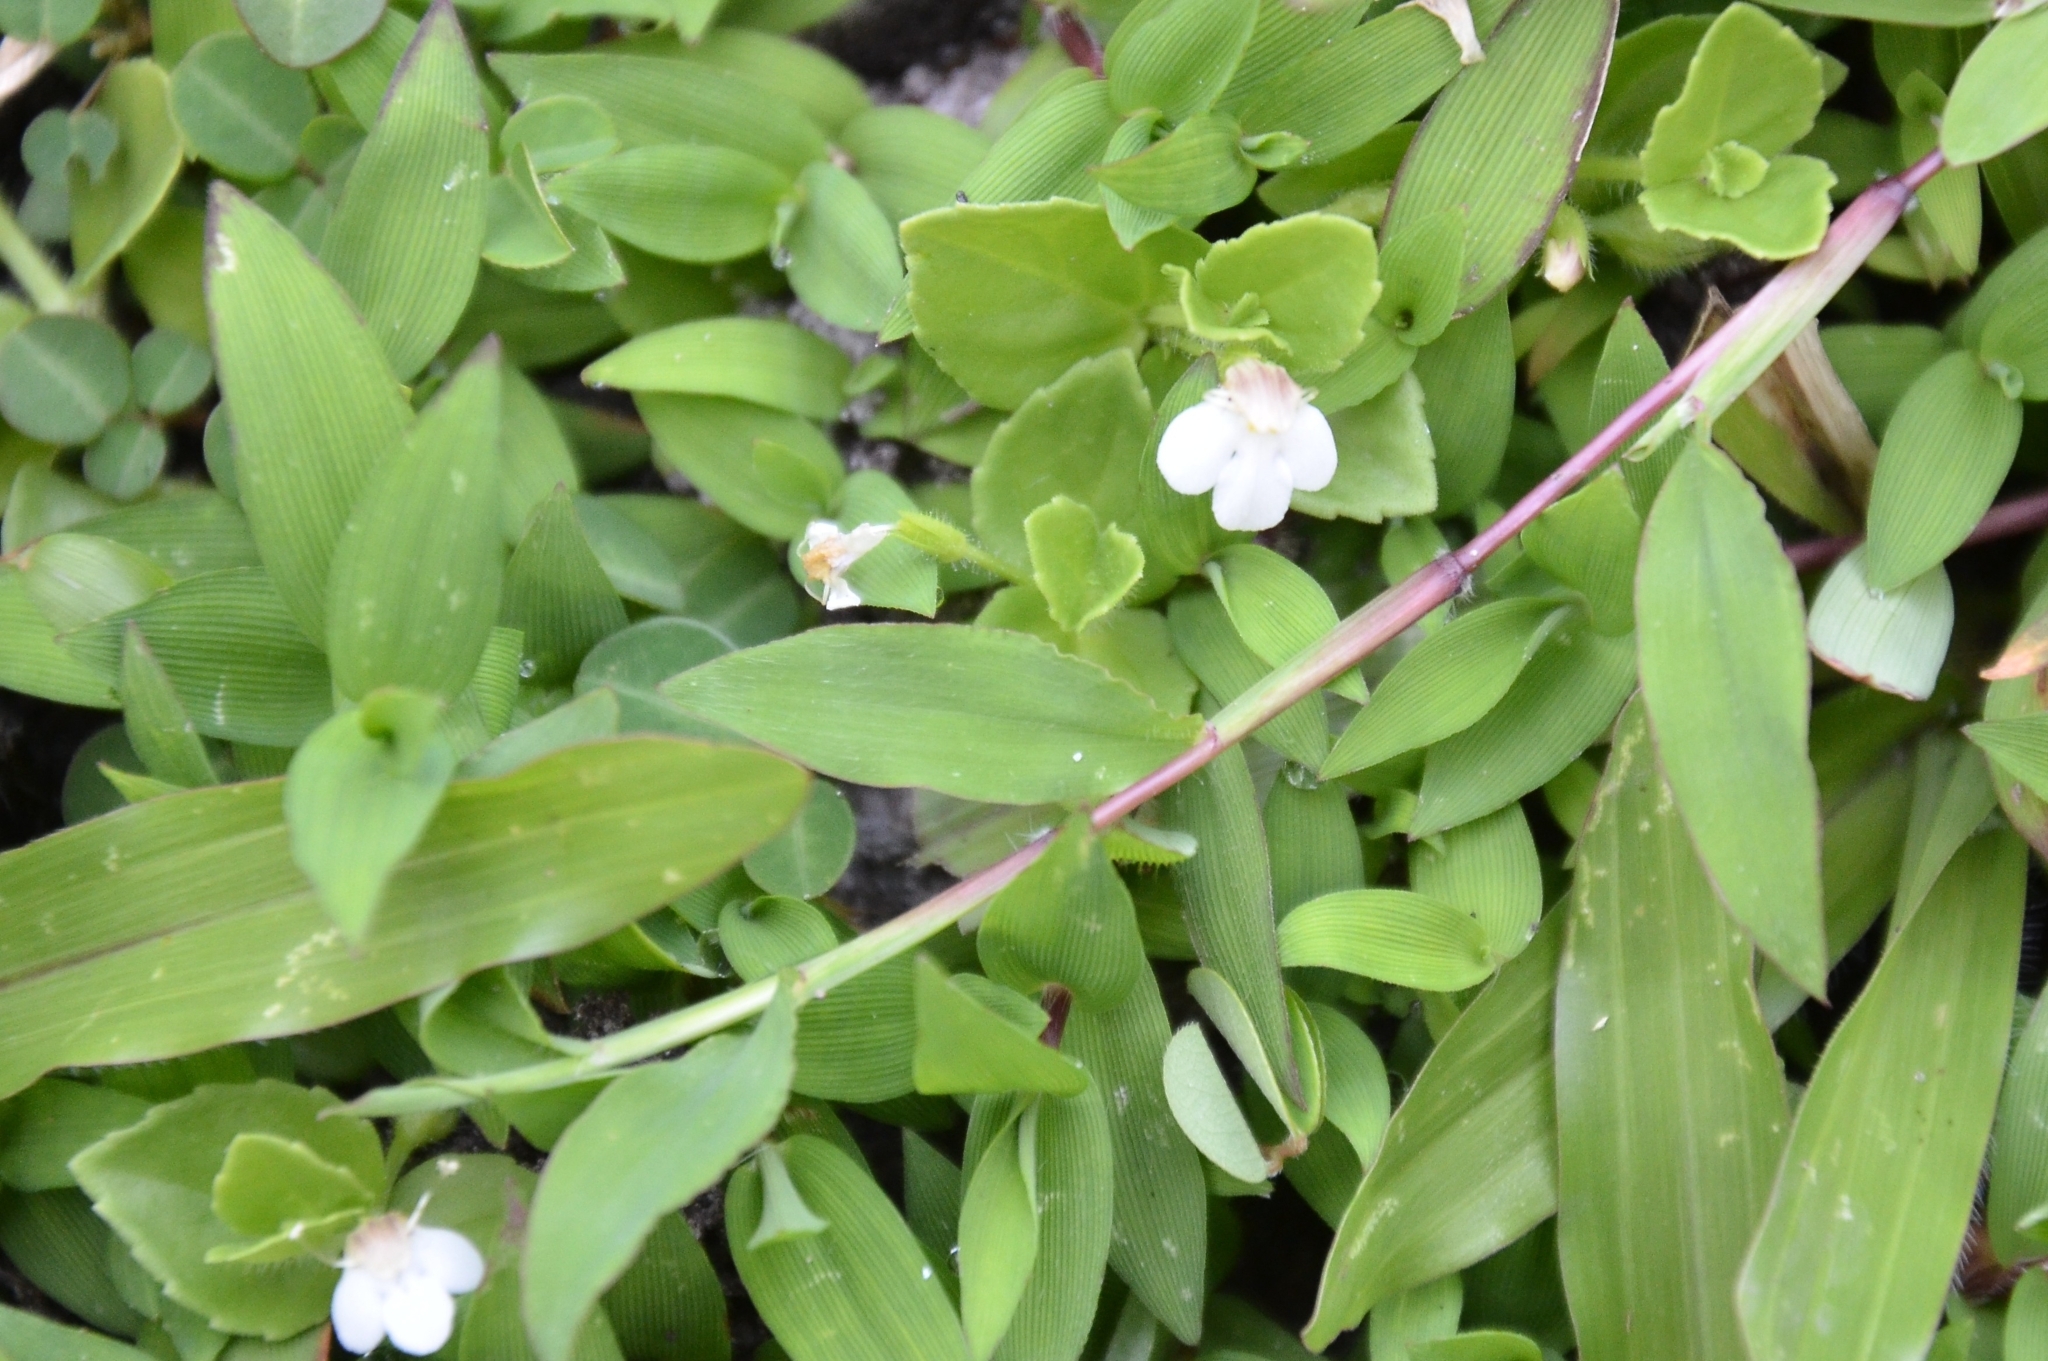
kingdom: Plantae
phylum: Tracheophyta
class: Magnoliopsida
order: Lamiales
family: Linderniaceae
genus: Yamazakia
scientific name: Yamazakia pusilla
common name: Tiny slitwort
